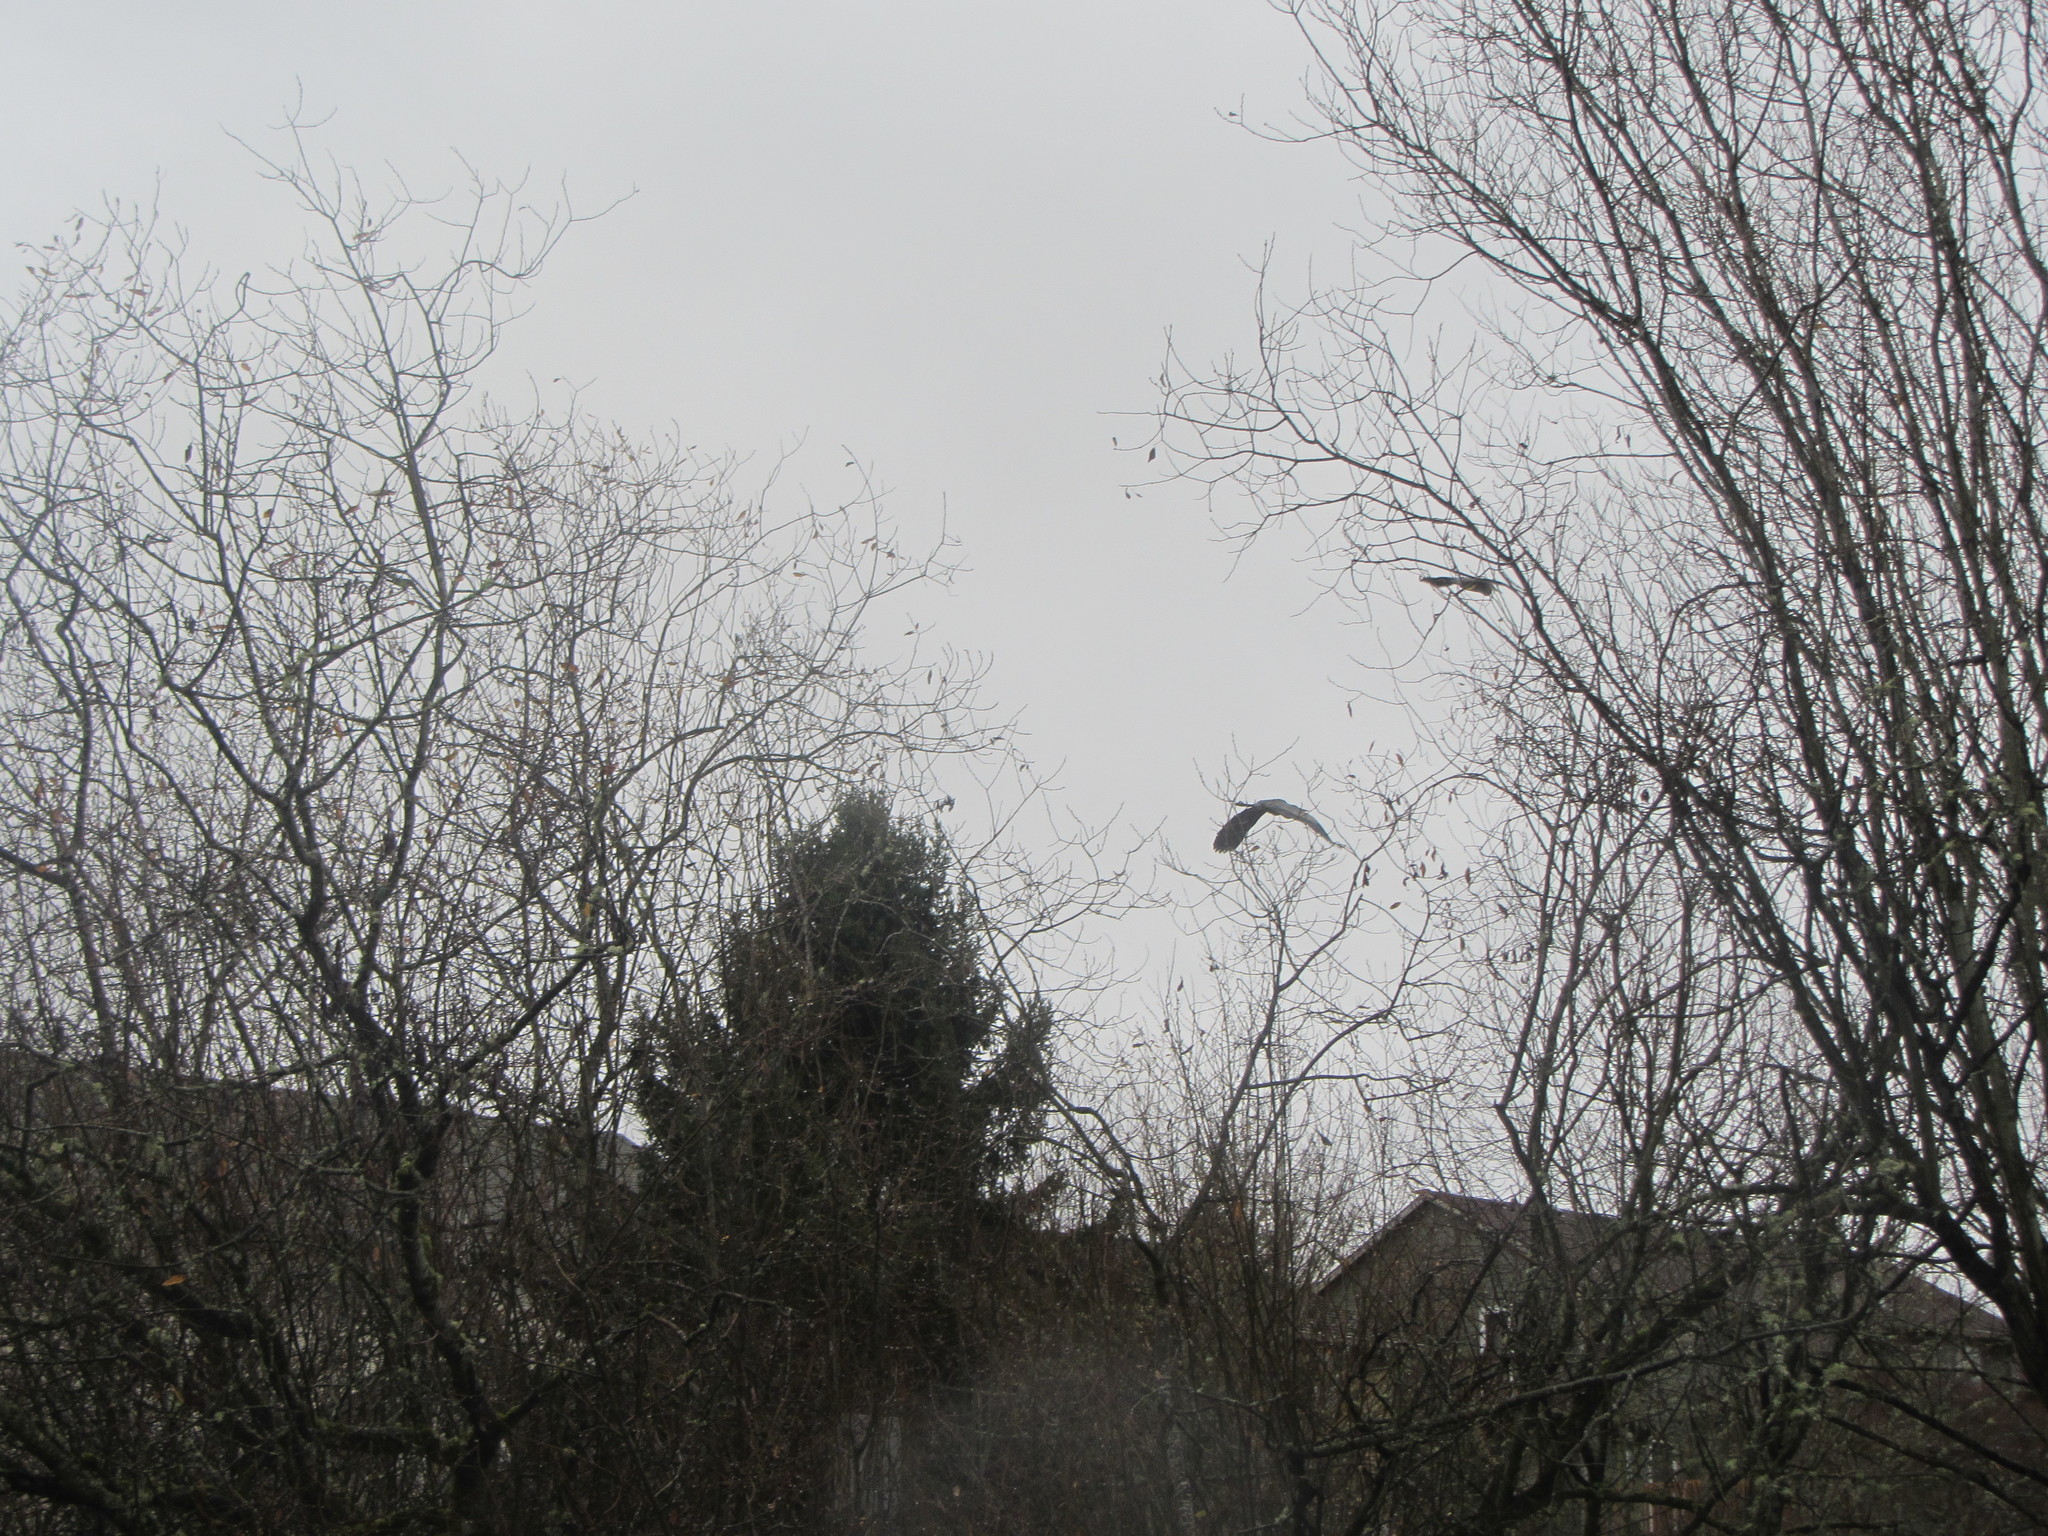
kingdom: Animalia
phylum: Chordata
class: Aves
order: Pelecaniformes
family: Ardeidae
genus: Ardea
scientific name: Ardea herodias
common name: Great blue heron
